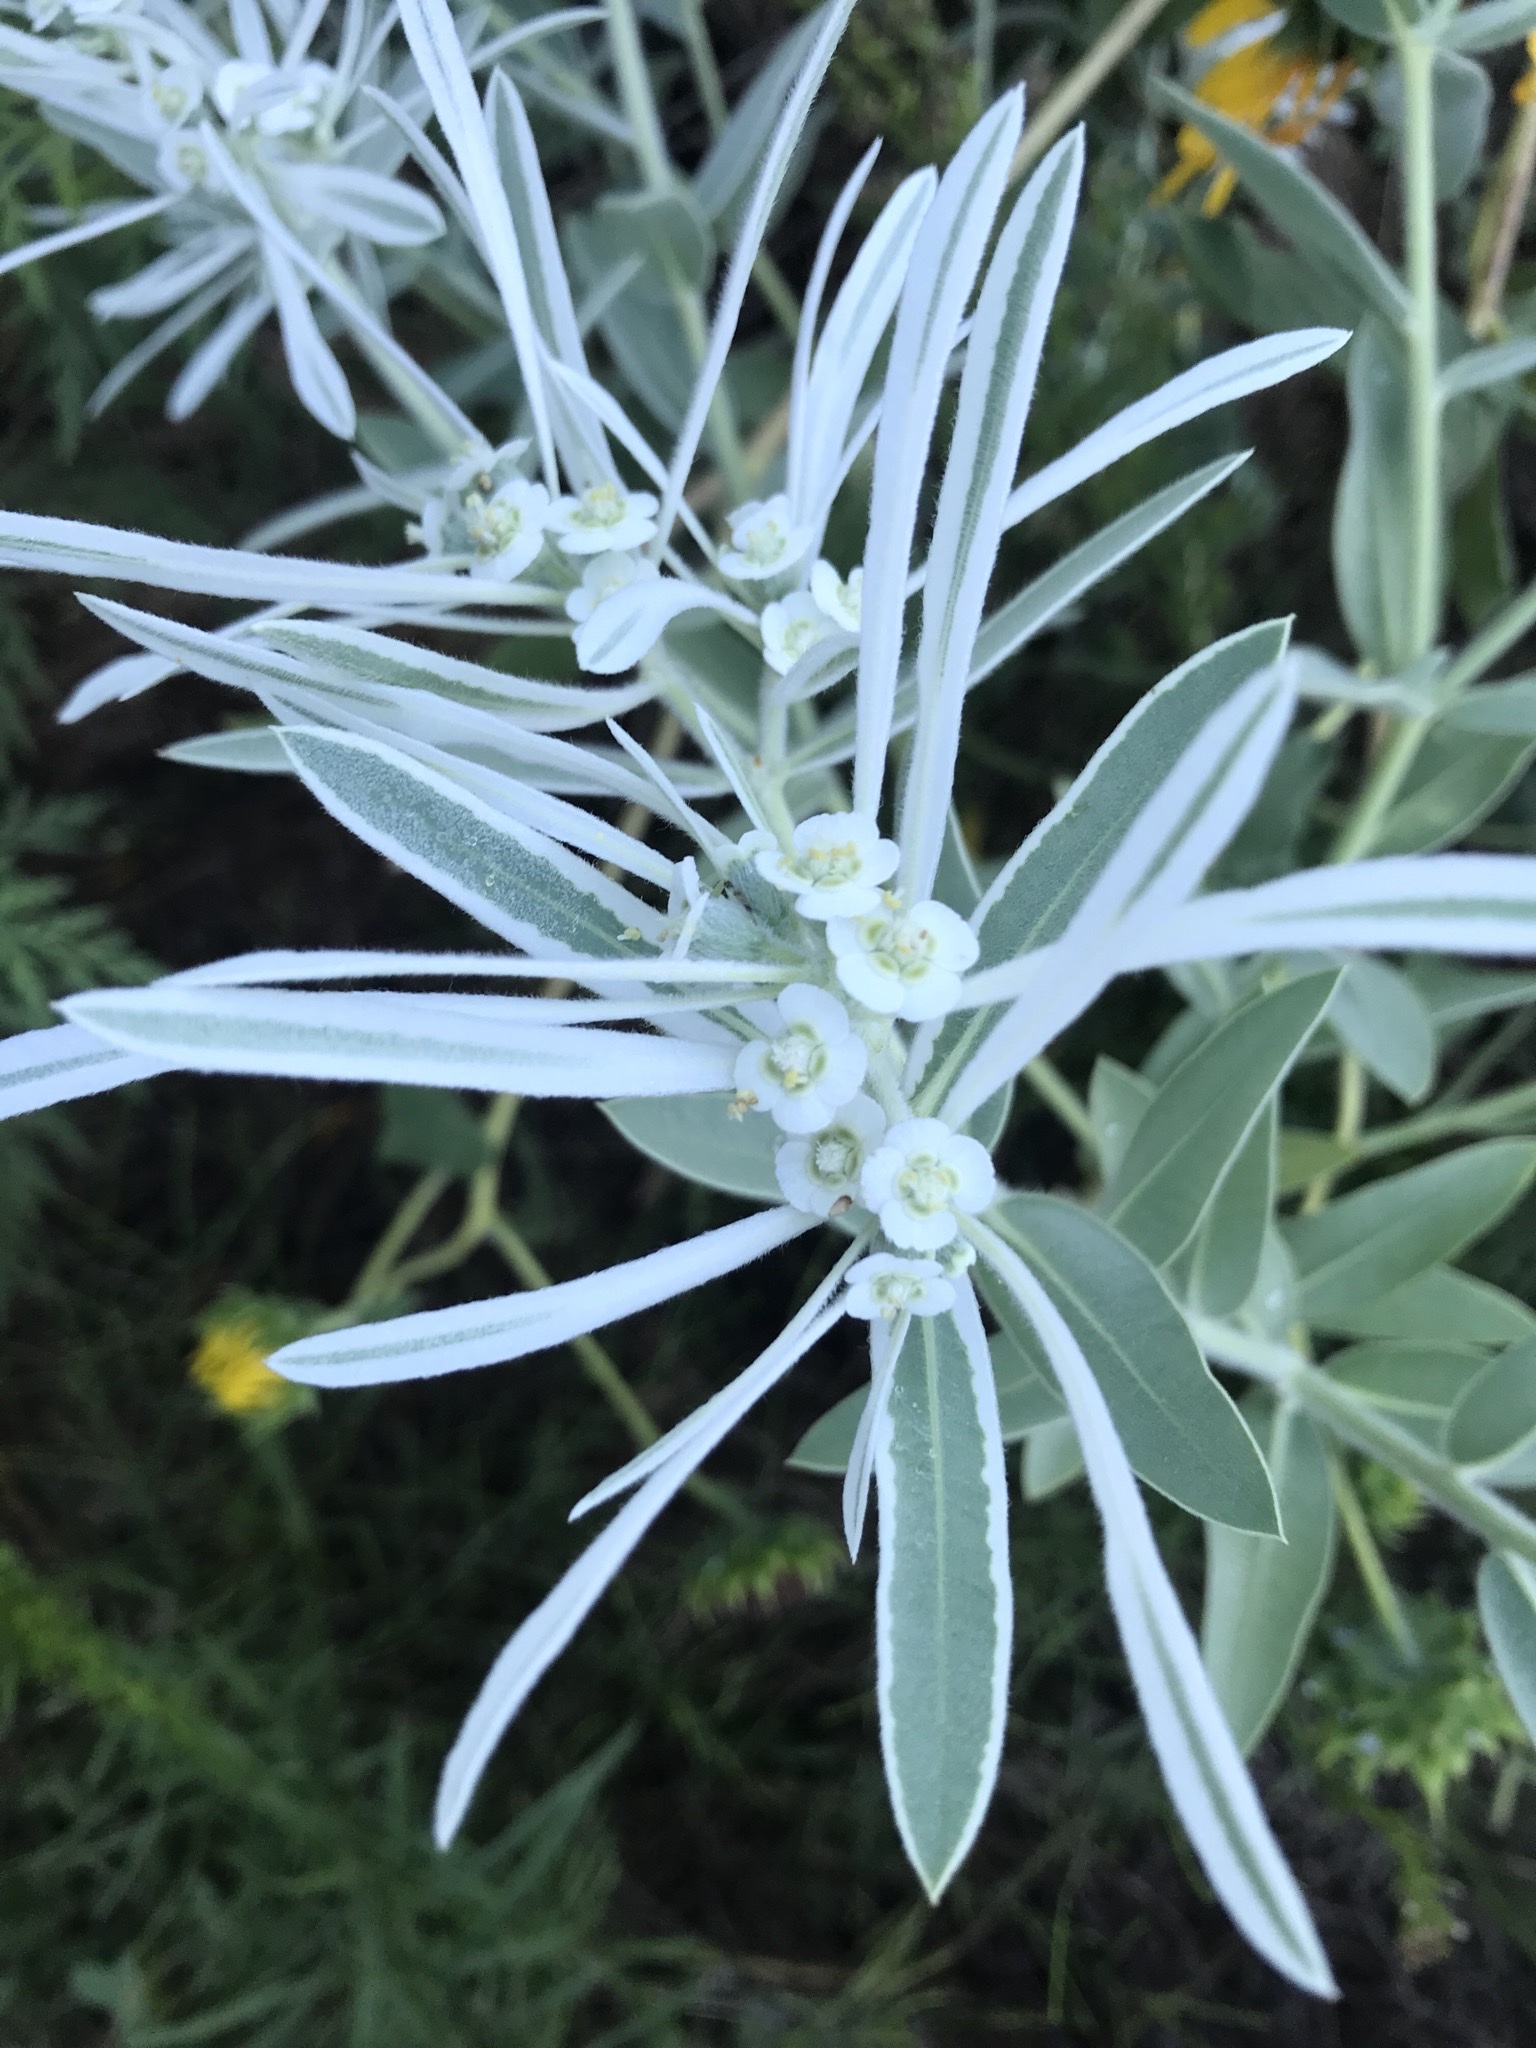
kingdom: Plantae
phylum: Tracheophyta
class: Magnoliopsida
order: Malpighiales
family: Euphorbiaceae
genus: Euphorbia
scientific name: Euphorbia bicolor
